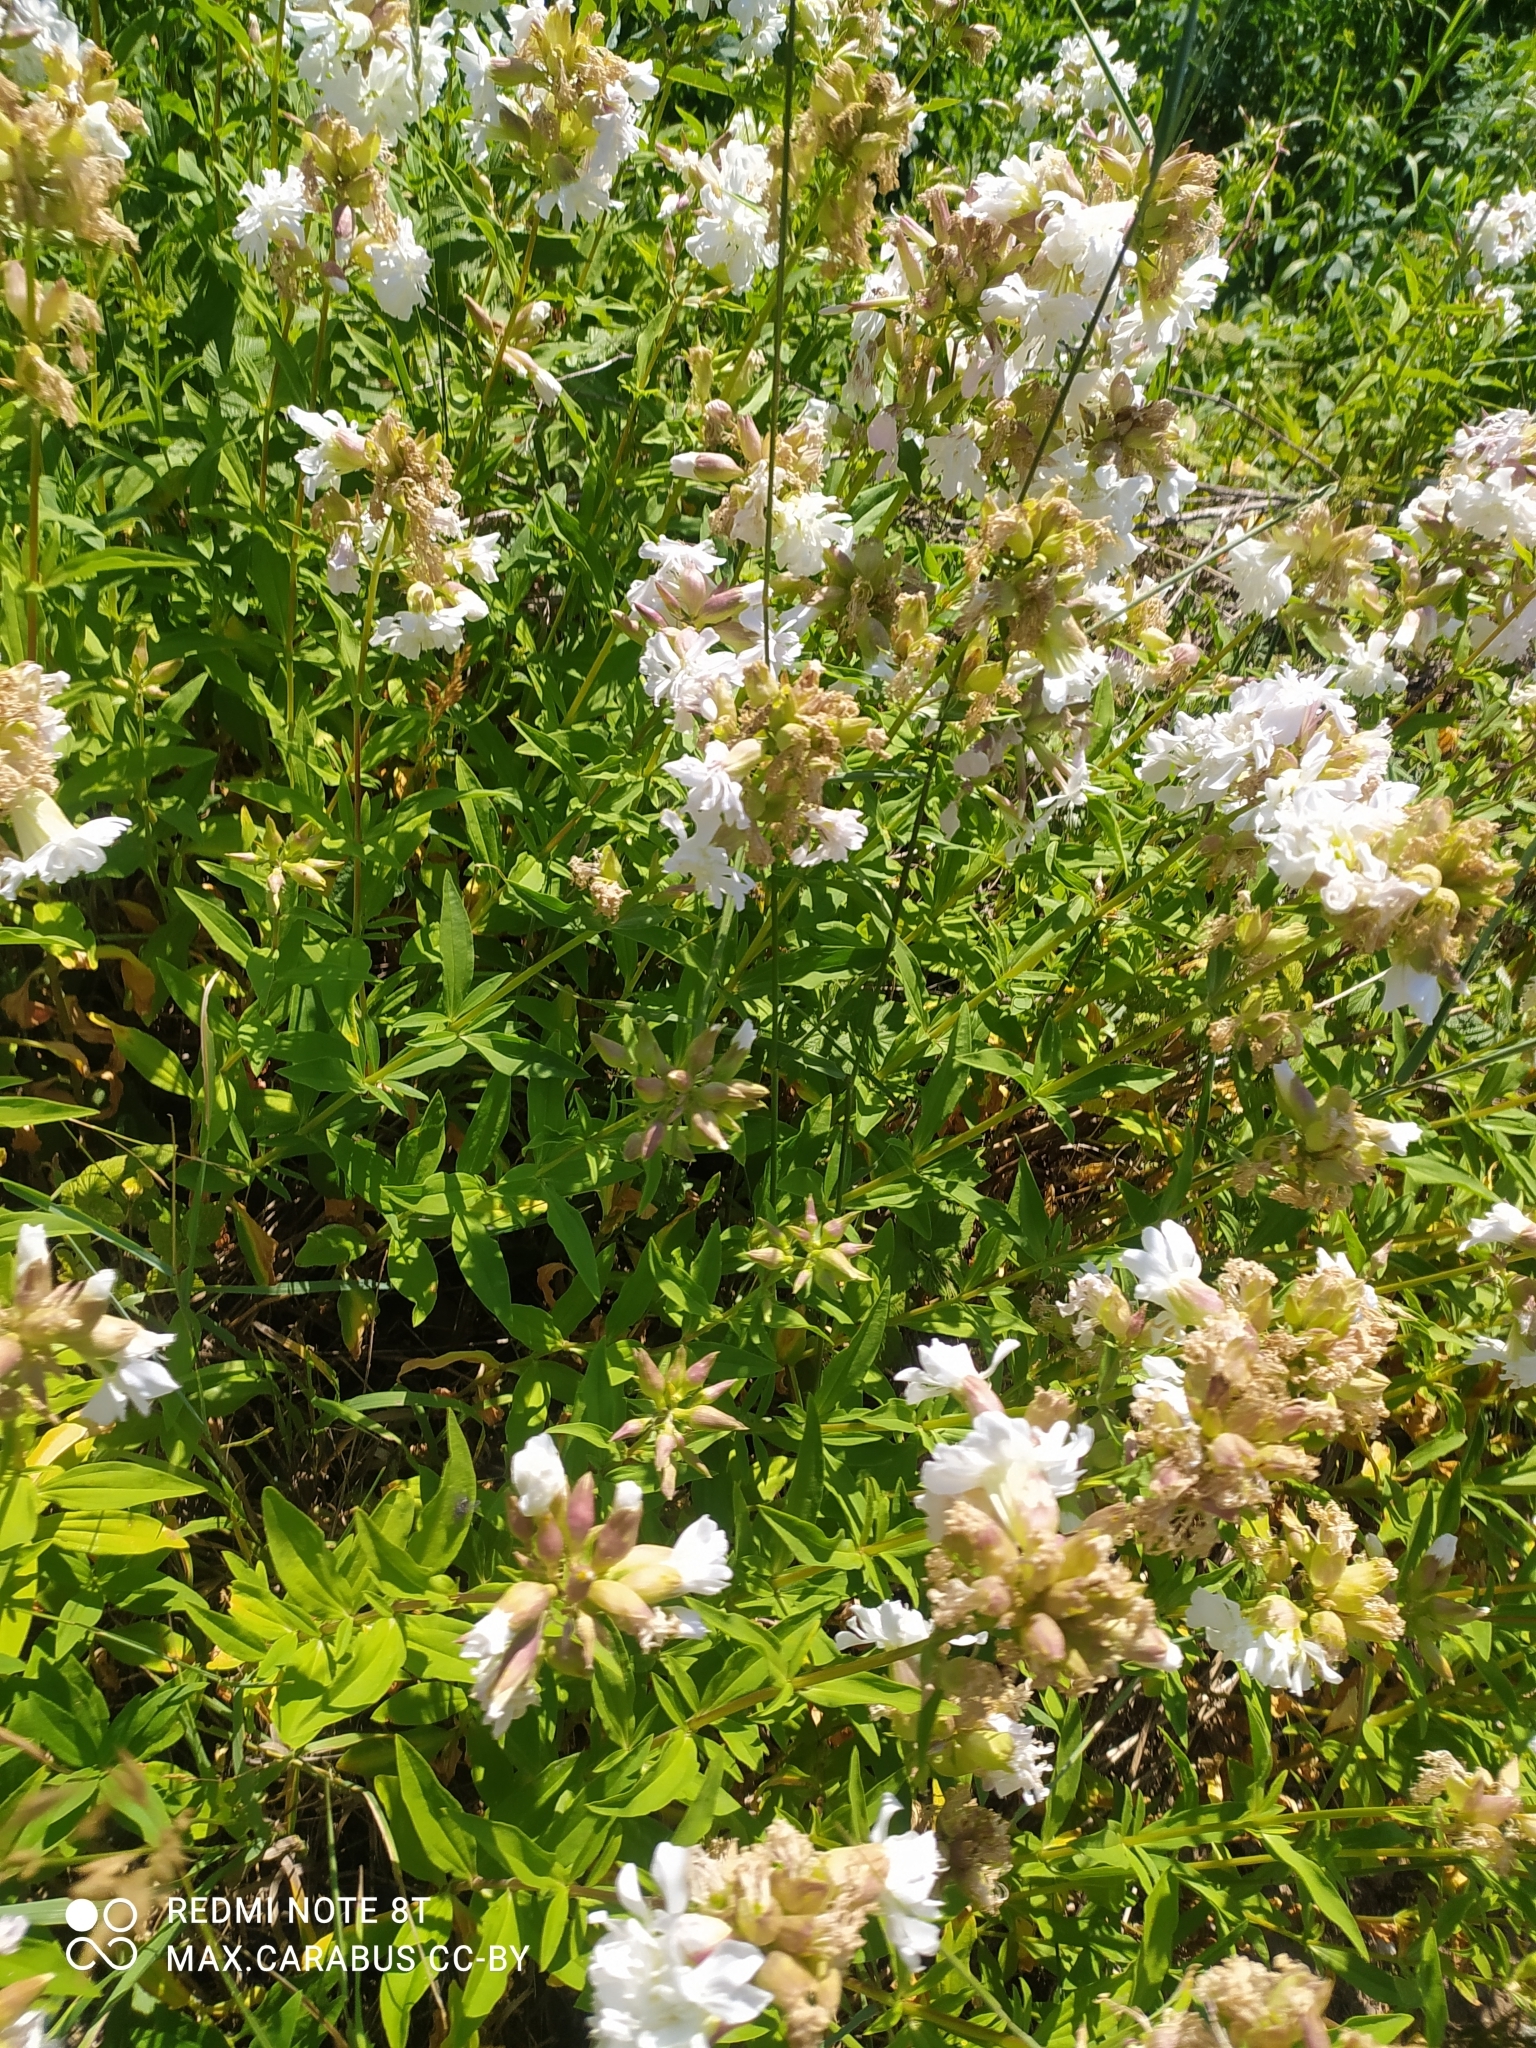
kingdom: Plantae
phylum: Tracheophyta
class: Magnoliopsida
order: Caryophyllales
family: Caryophyllaceae
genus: Saponaria
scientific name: Saponaria officinalis
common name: Soapwort
